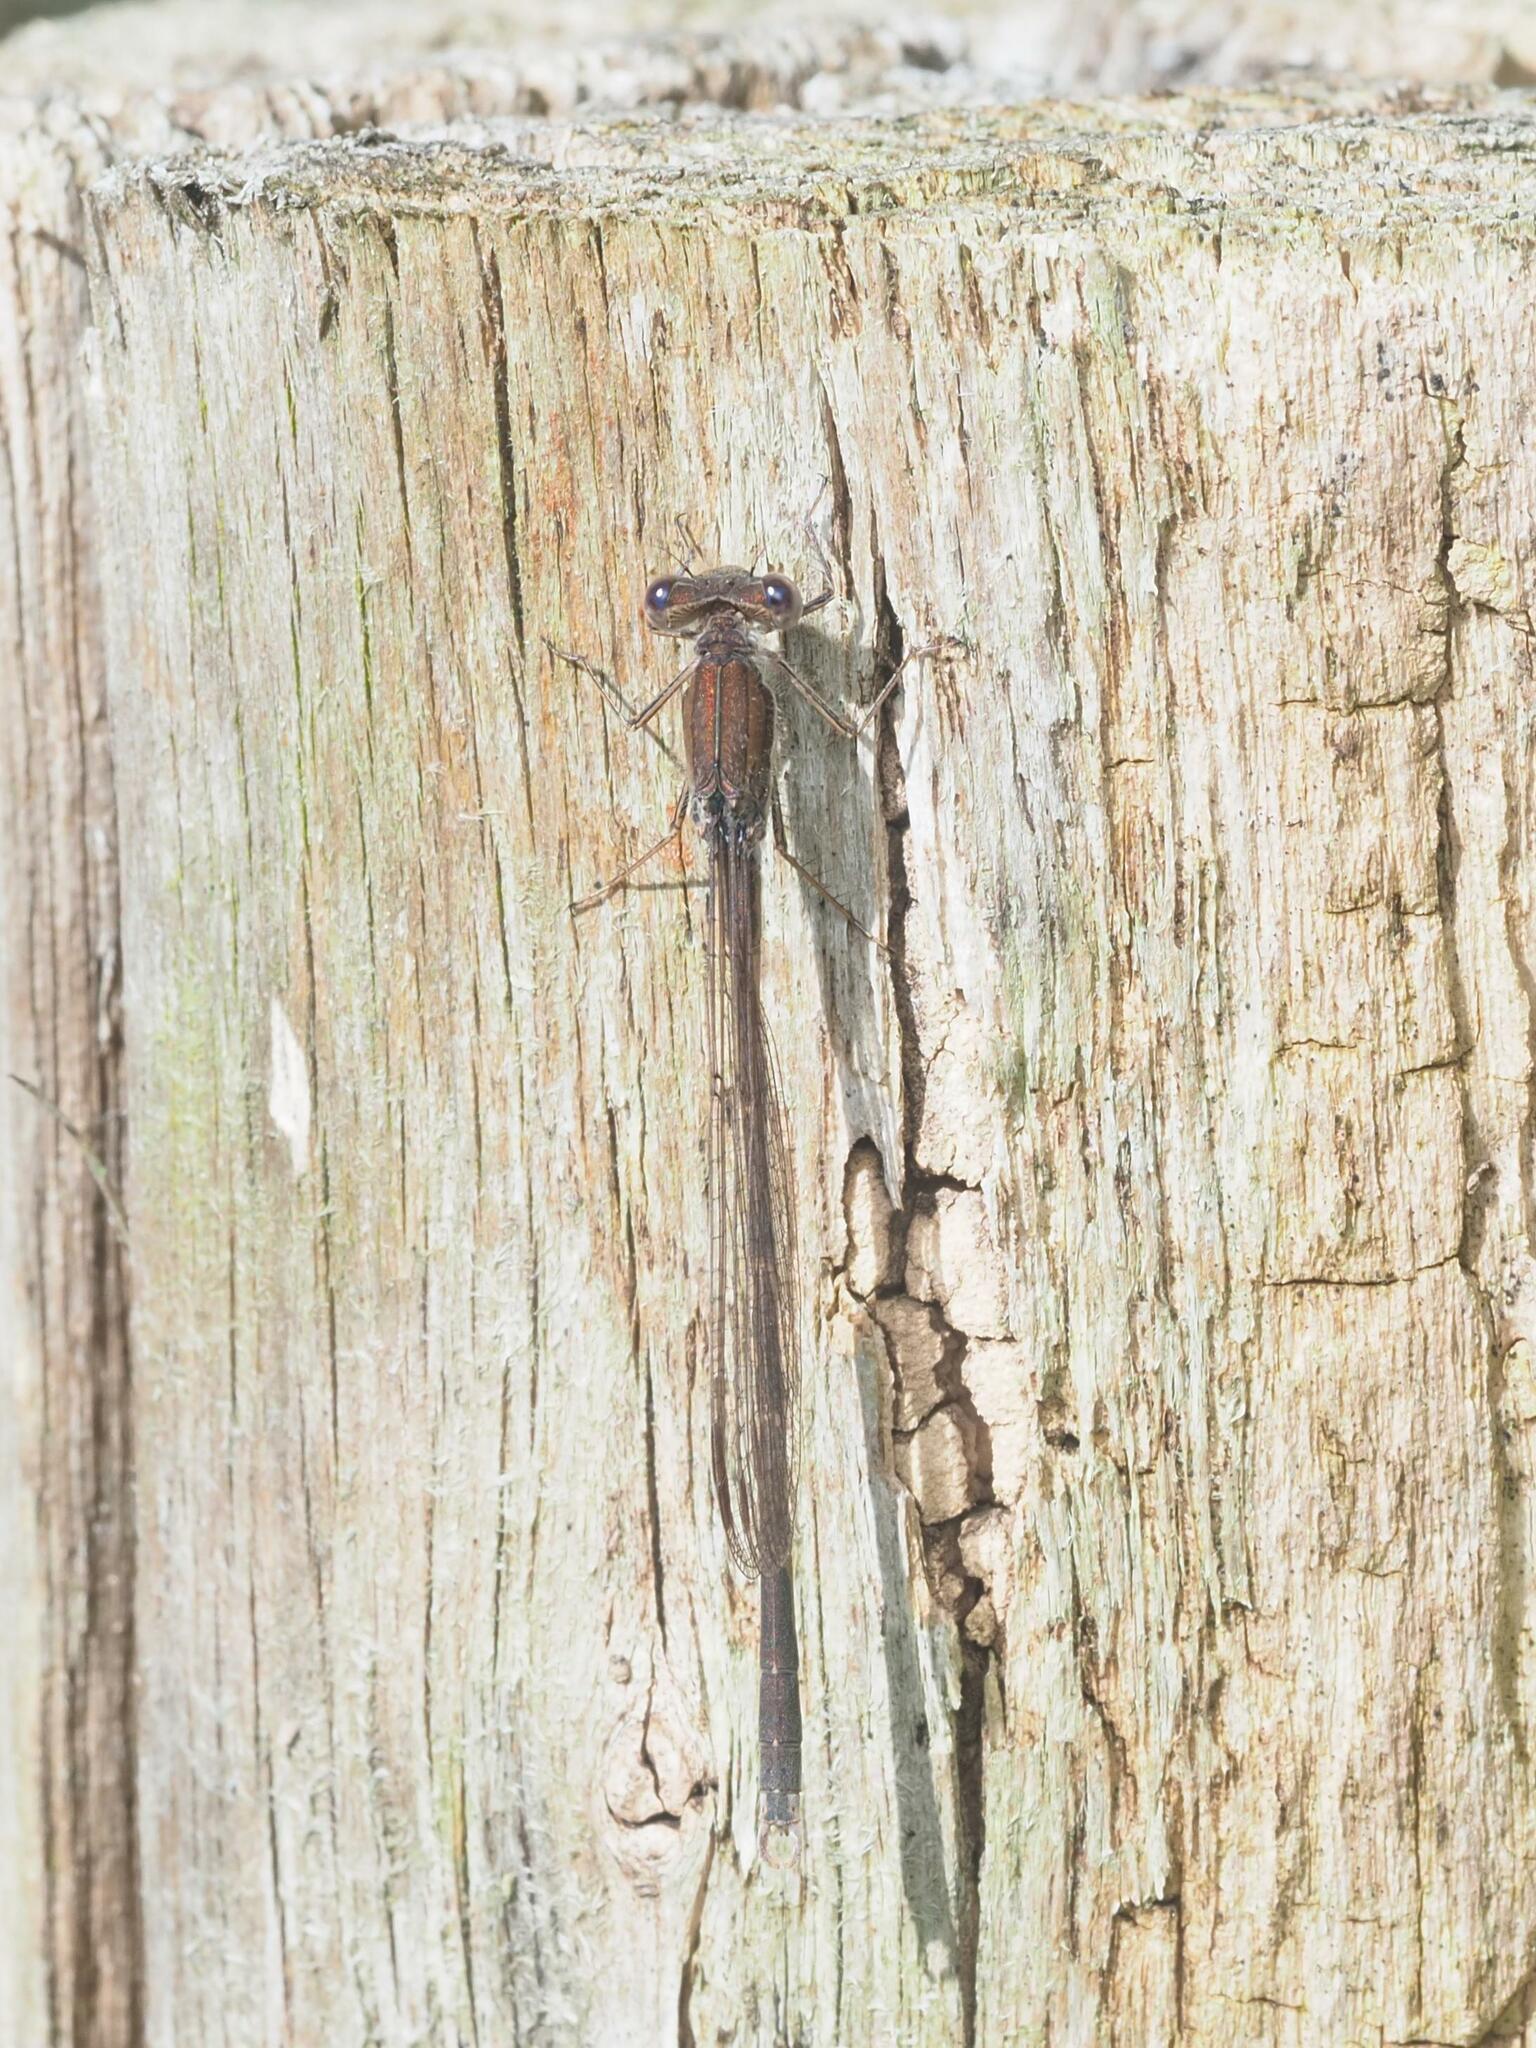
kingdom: Animalia
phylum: Arthropoda
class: Insecta
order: Odonata
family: Lestidae
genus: Sympecma
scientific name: Sympecma fusca
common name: Common winter damsel
